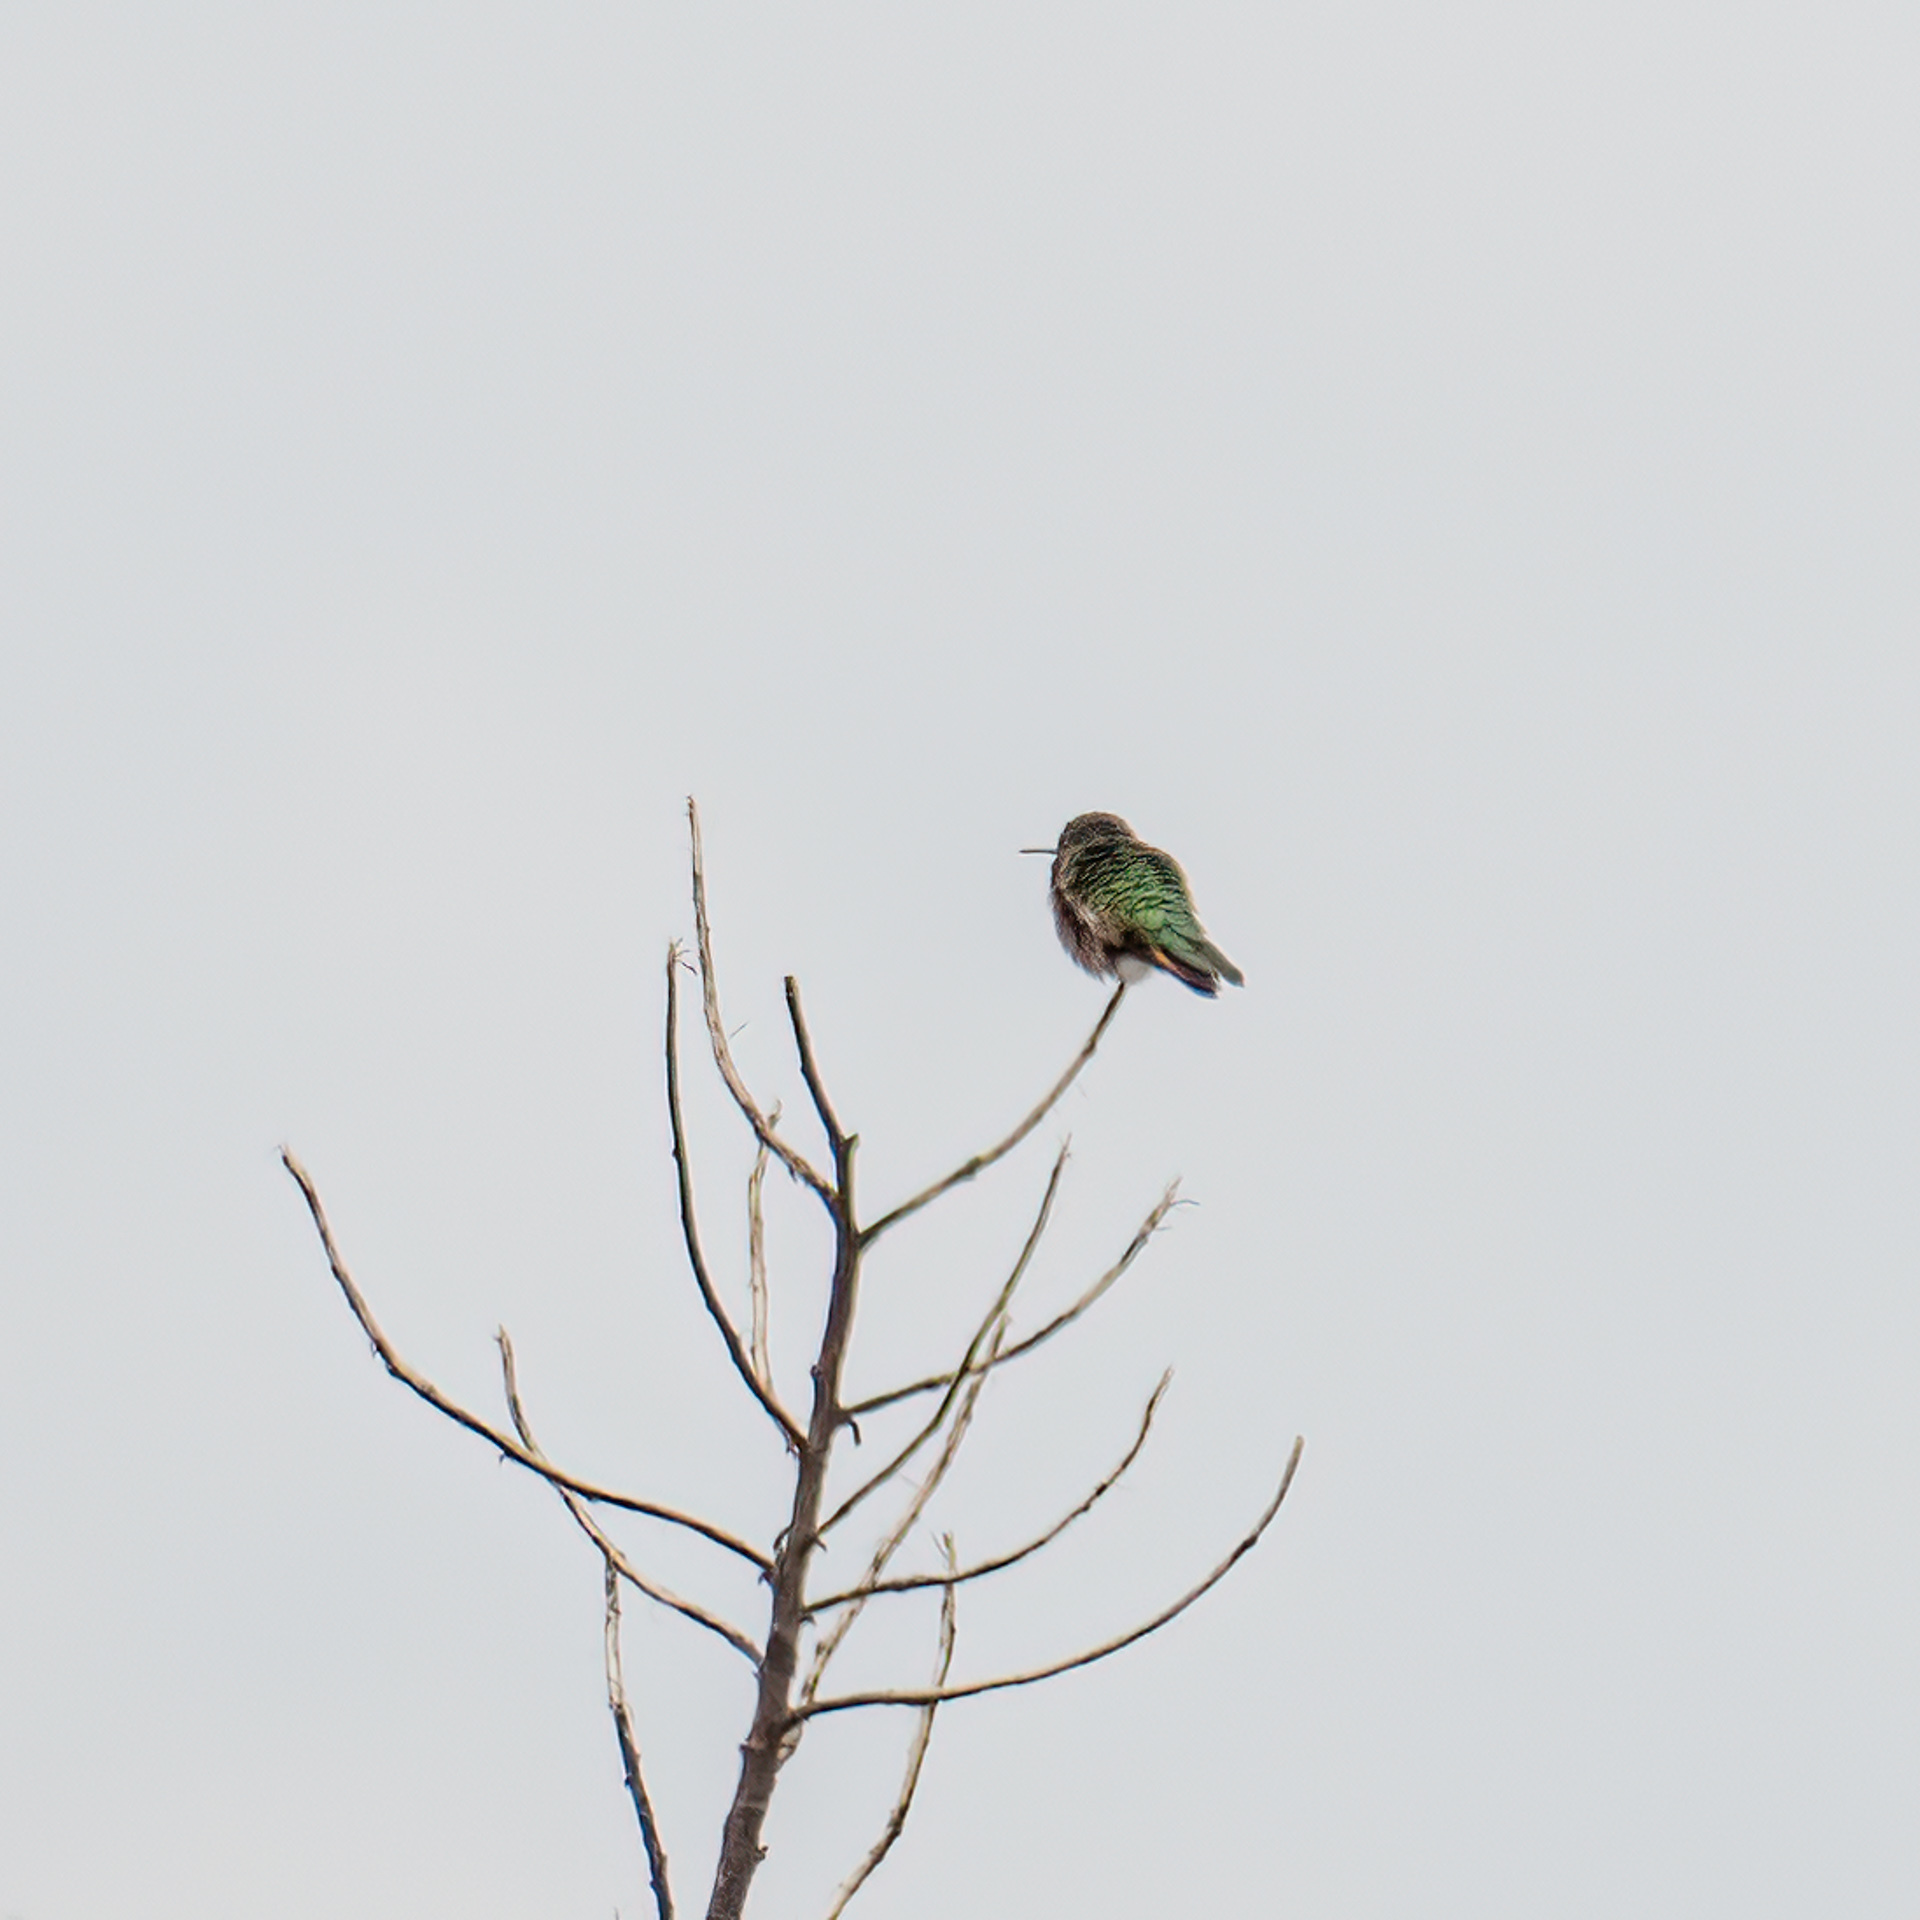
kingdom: Animalia
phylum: Chordata
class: Aves
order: Apodiformes
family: Trochilidae
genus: Selasphorus
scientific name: Selasphorus platycercus
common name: Broad-tailed hummingbird
